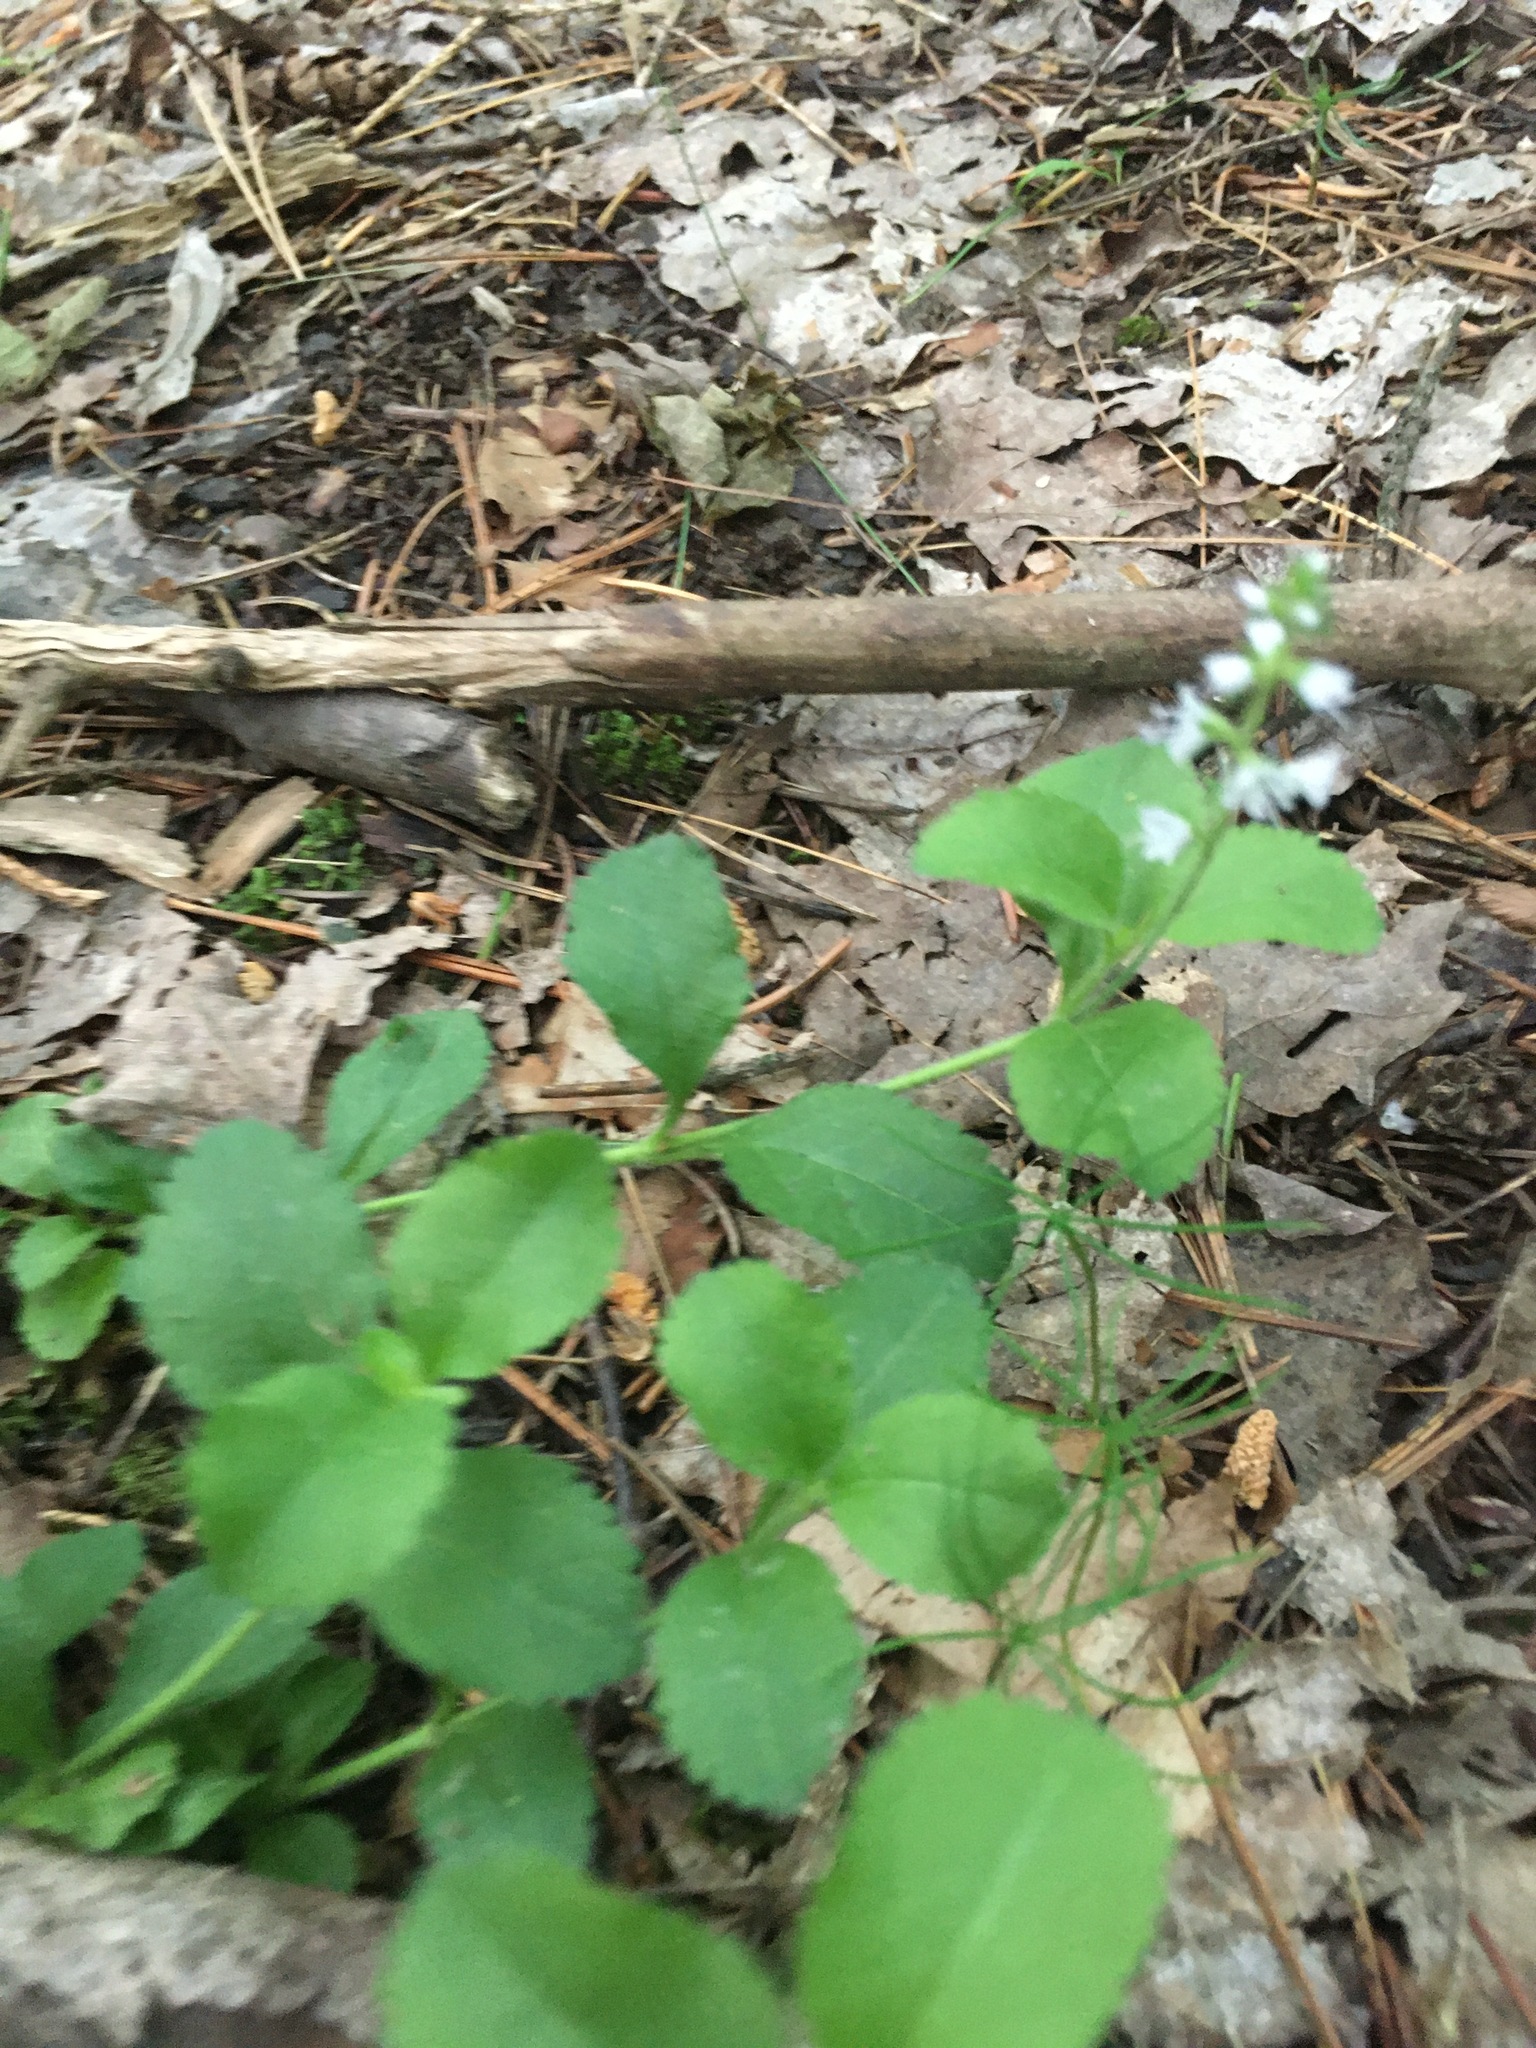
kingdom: Plantae
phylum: Tracheophyta
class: Magnoliopsida
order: Lamiales
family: Plantaginaceae
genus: Veronica
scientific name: Veronica officinalis
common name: Common speedwell
